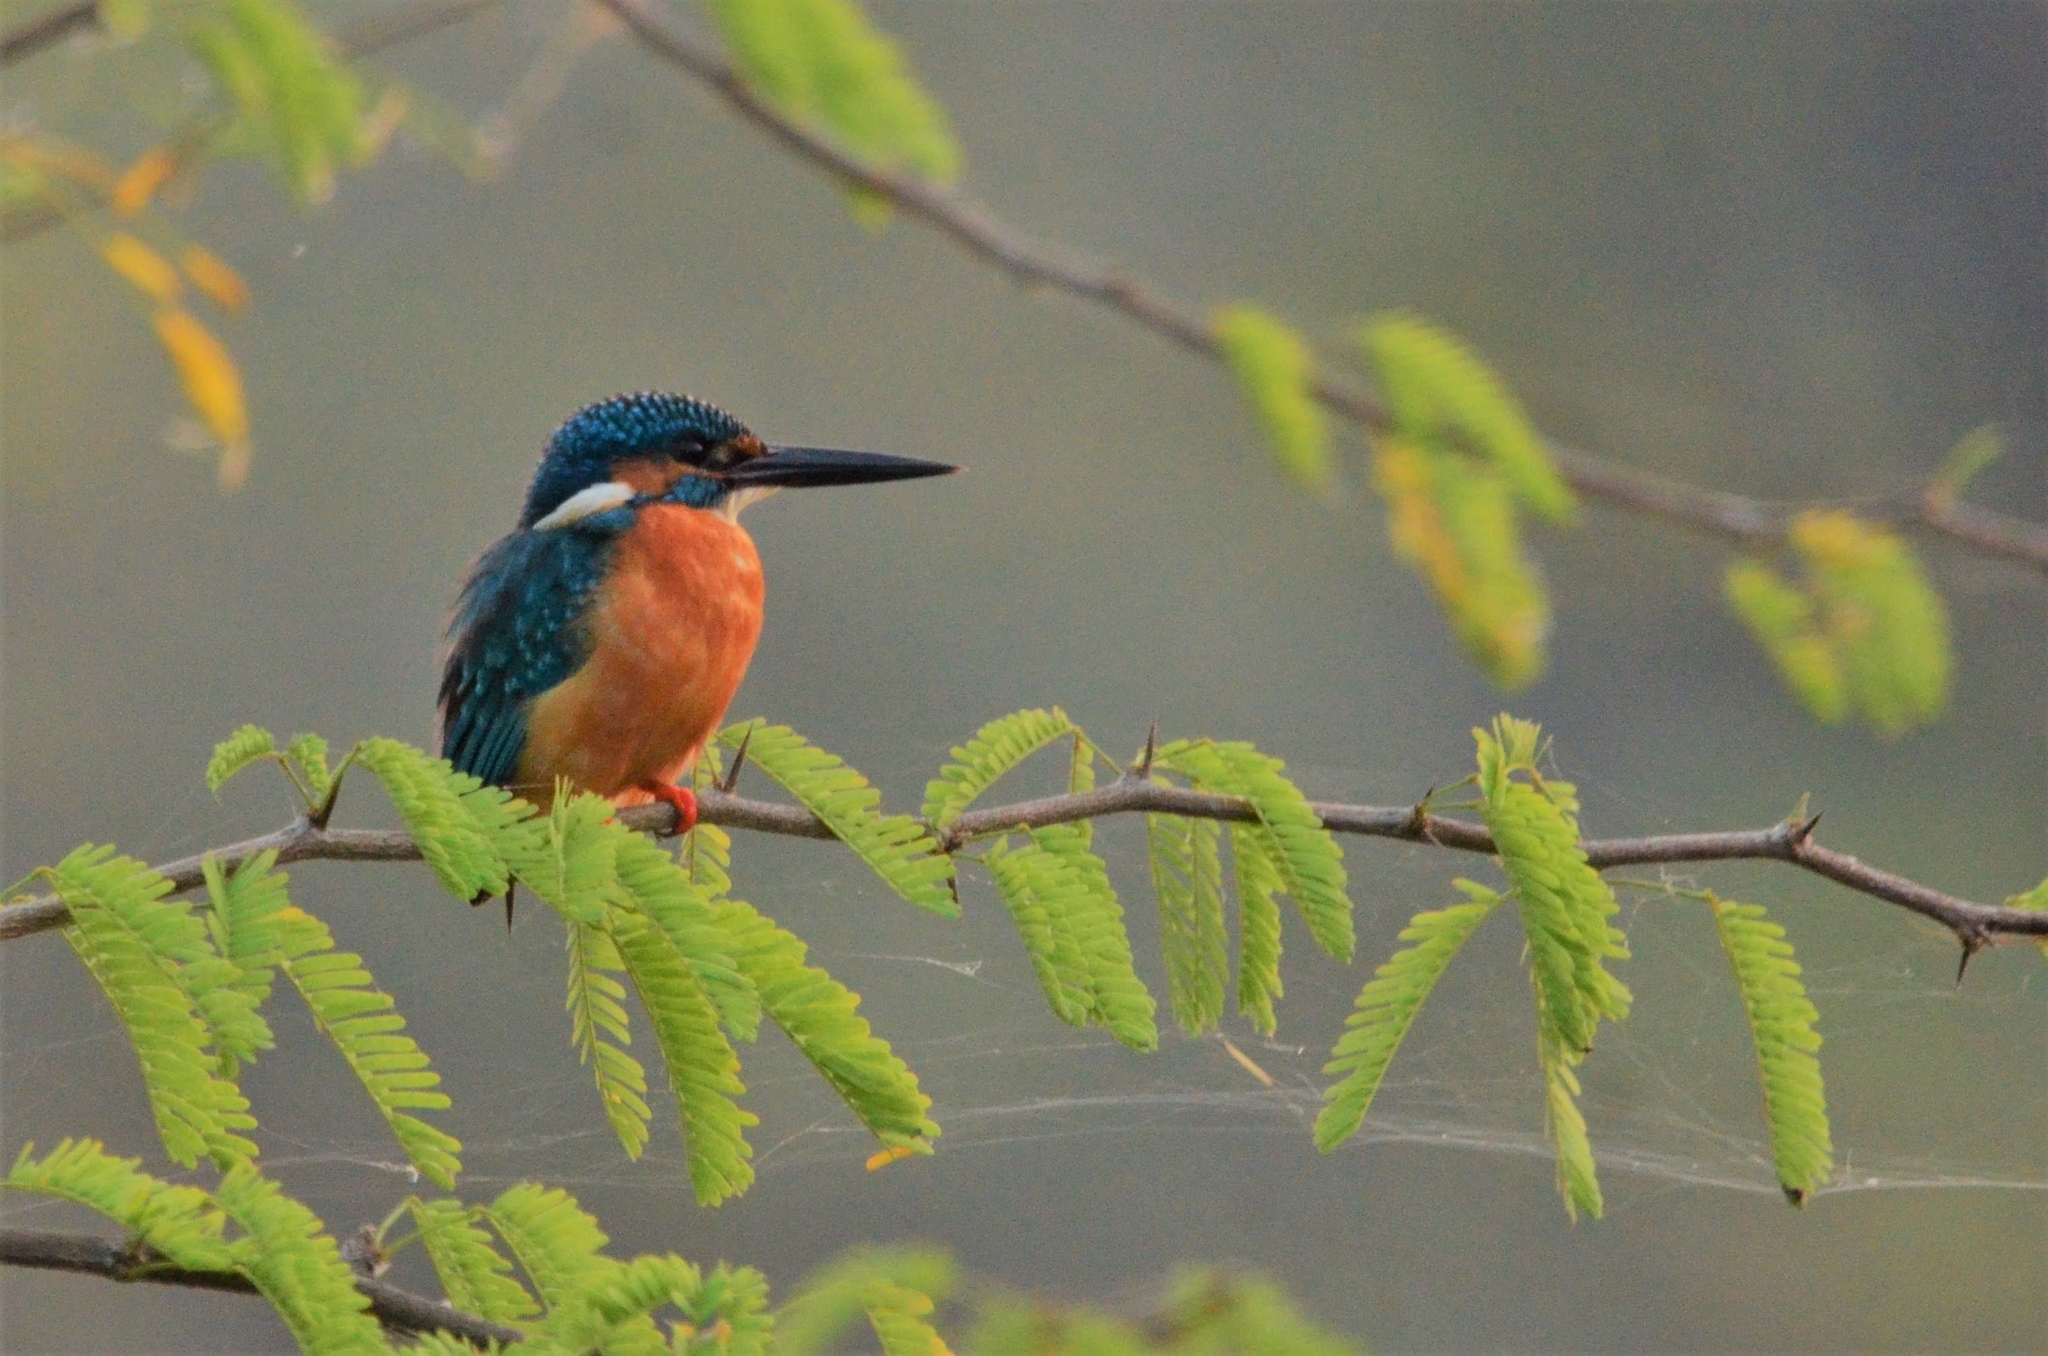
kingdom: Animalia
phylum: Chordata
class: Aves
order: Coraciiformes
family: Alcedinidae
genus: Alcedo
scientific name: Alcedo atthis
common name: Common kingfisher
